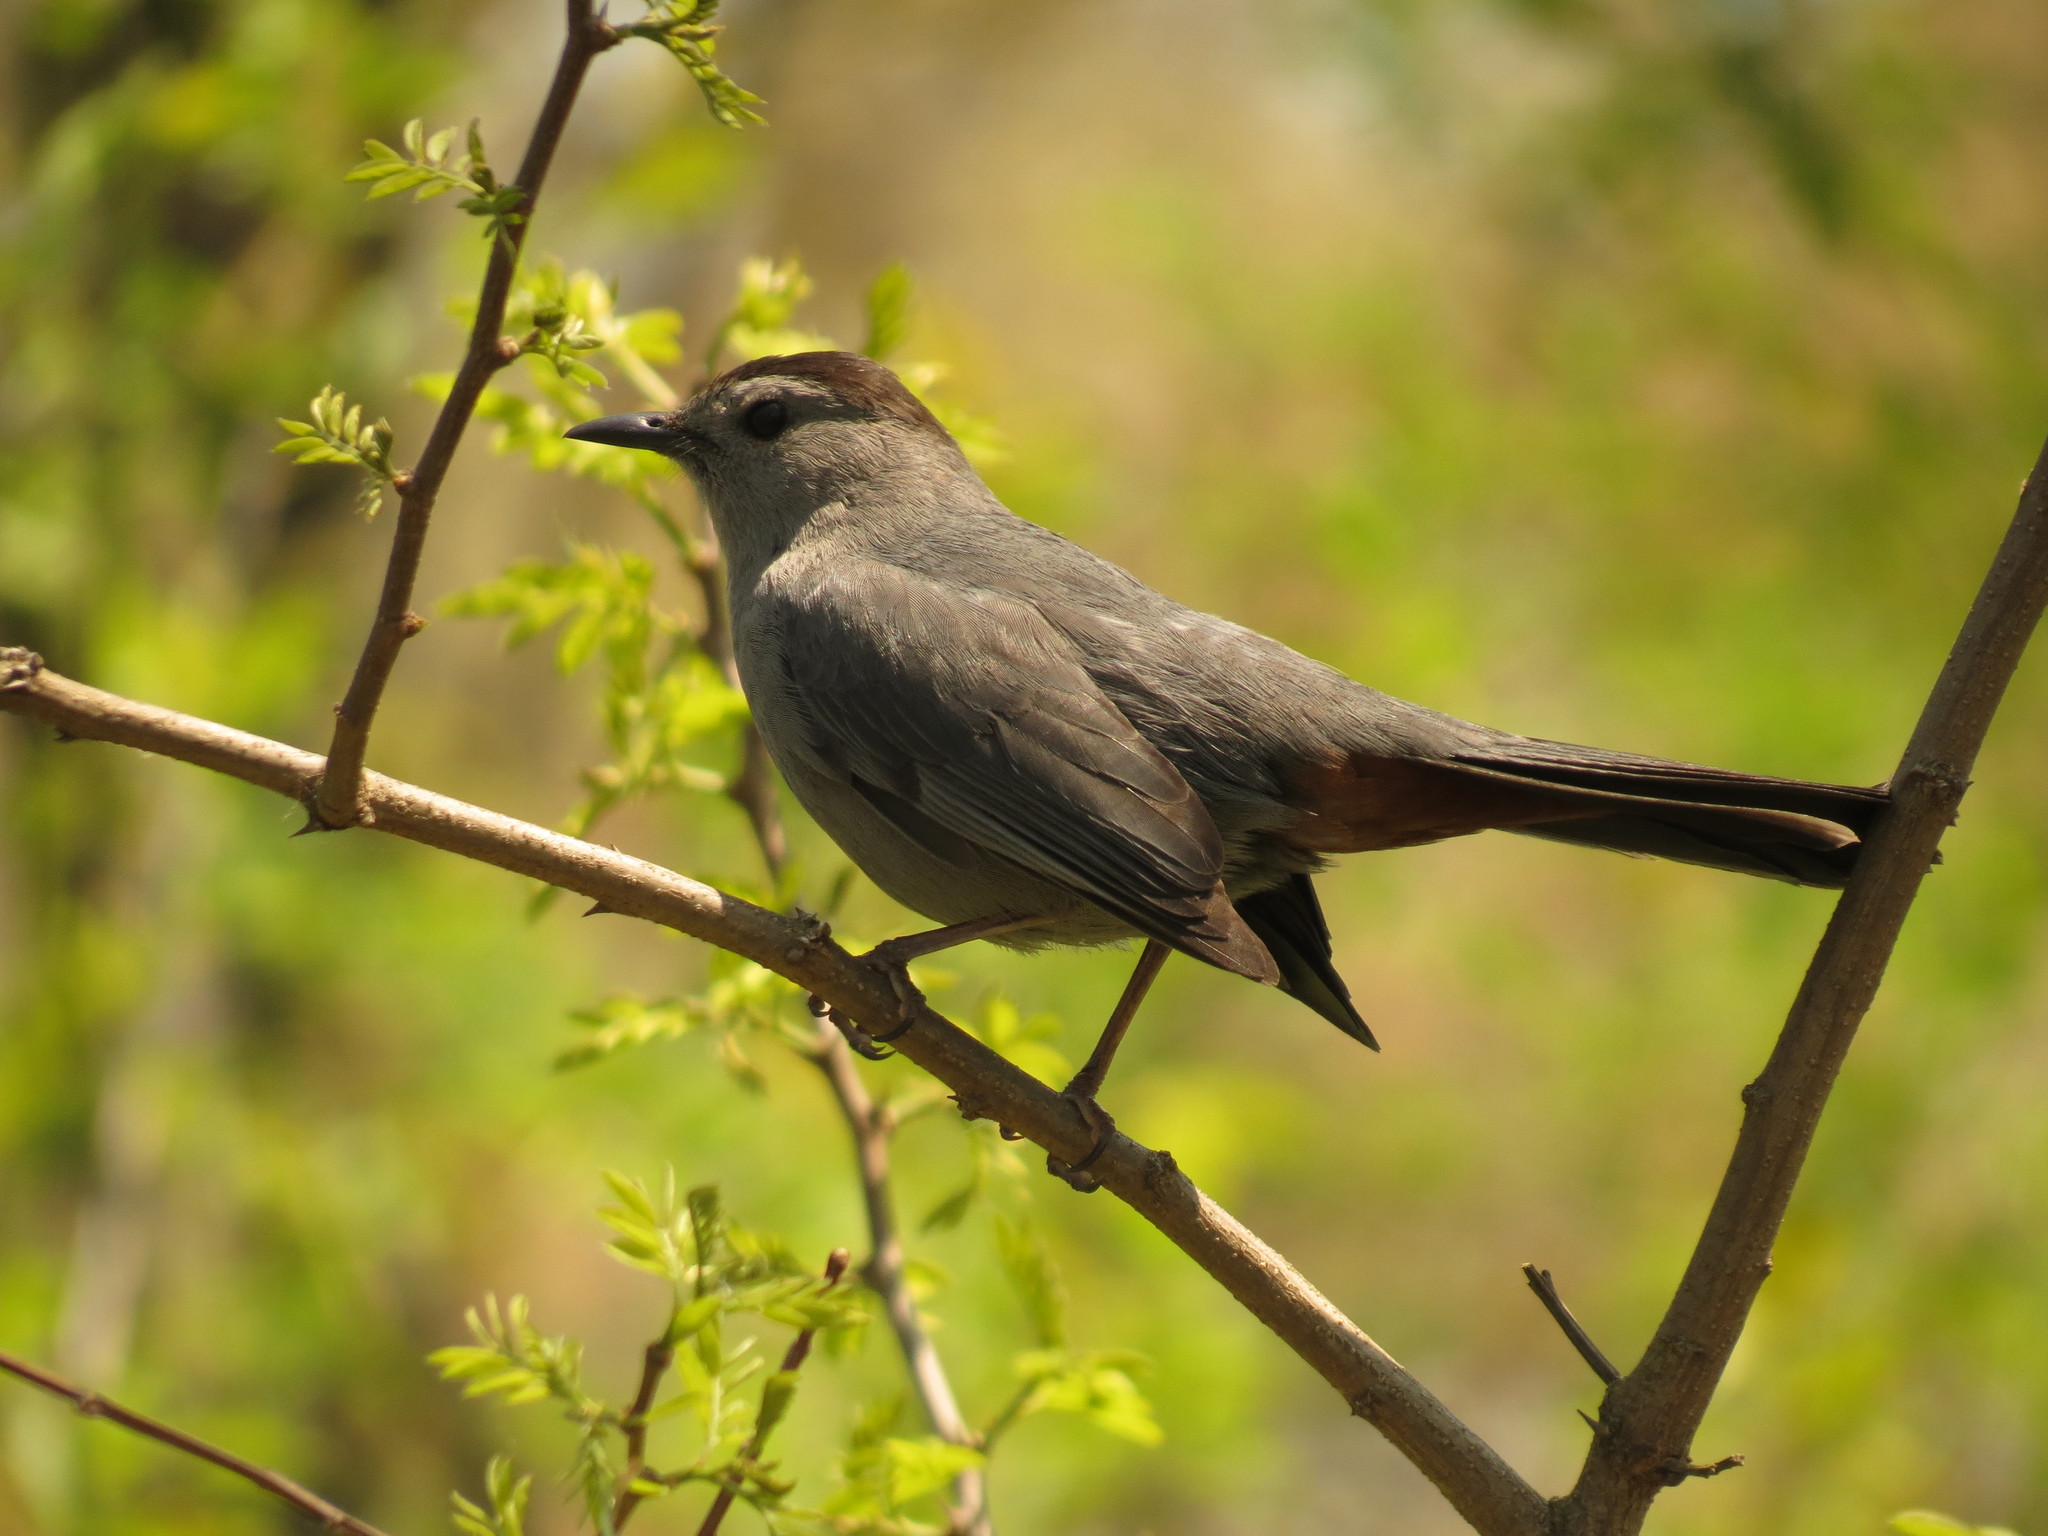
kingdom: Animalia
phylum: Chordata
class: Aves
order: Passeriformes
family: Mimidae
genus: Dumetella
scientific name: Dumetella carolinensis
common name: Gray catbird
